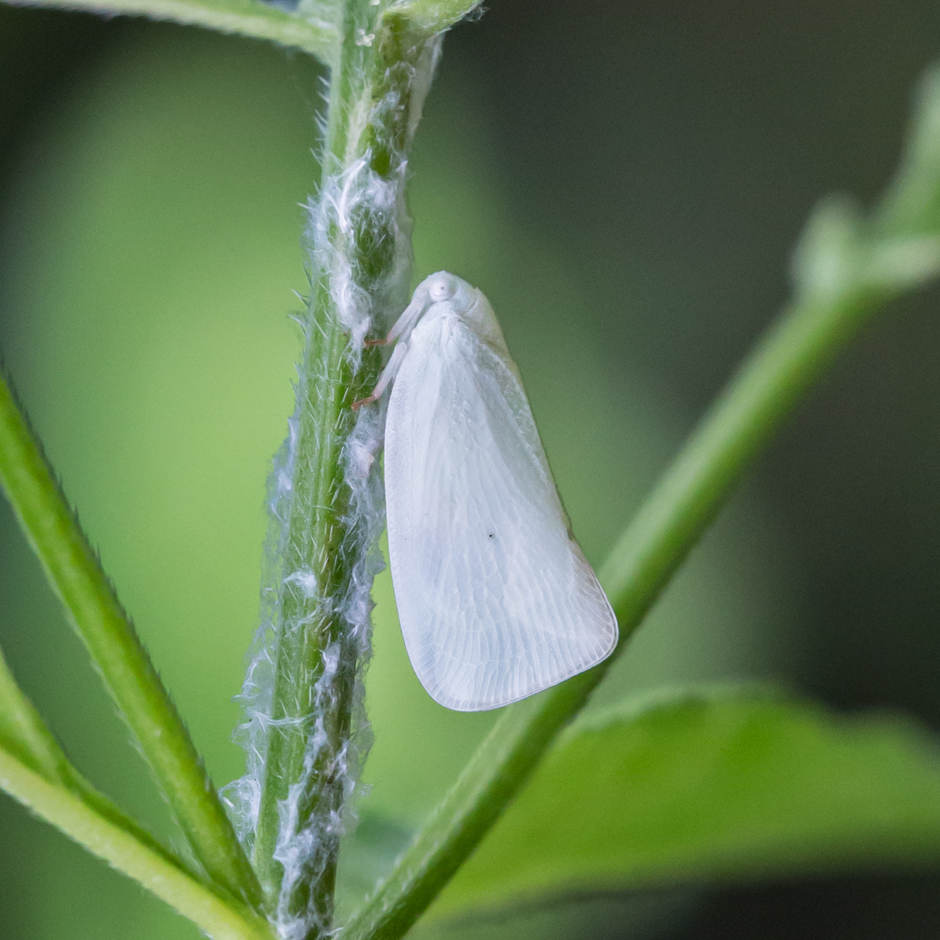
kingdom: Animalia
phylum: Arthropoda
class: Insecta
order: Hemiptera
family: Flatidae
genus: Flatormenis
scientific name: Flatormenis proxima
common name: Northern flatid planthopper
